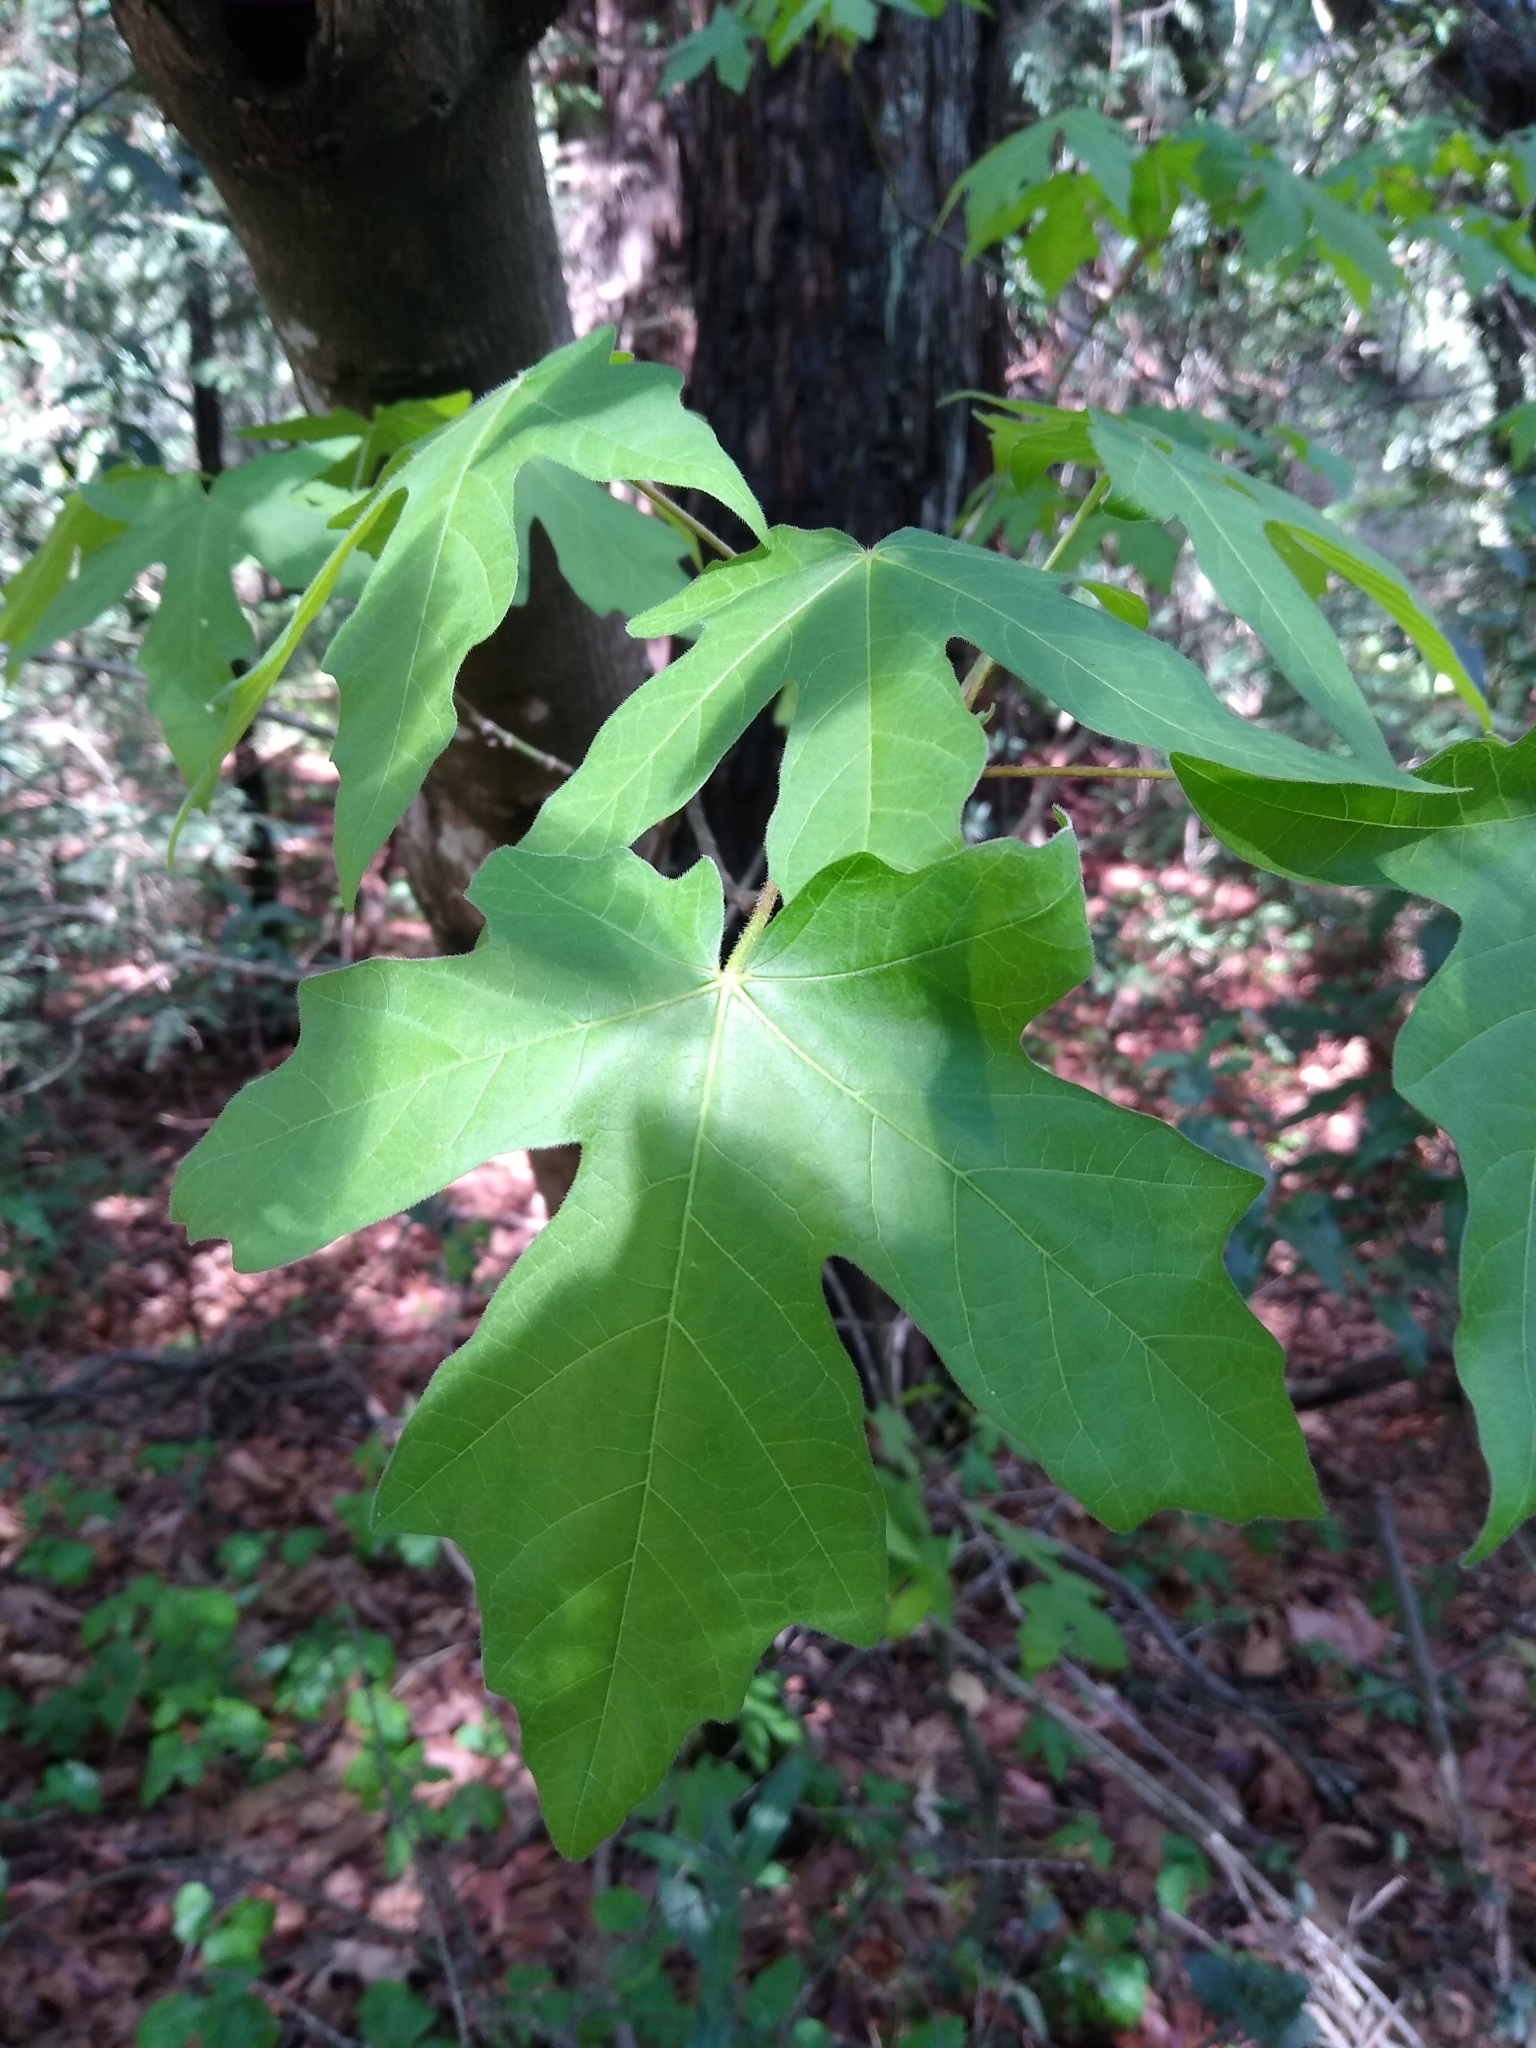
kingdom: Plantae
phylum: Tracheophyta
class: Magnoliopsida
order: Sapindales
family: Sapindaceae
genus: Acer
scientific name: Acer macrophyllum
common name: Oregon maple
